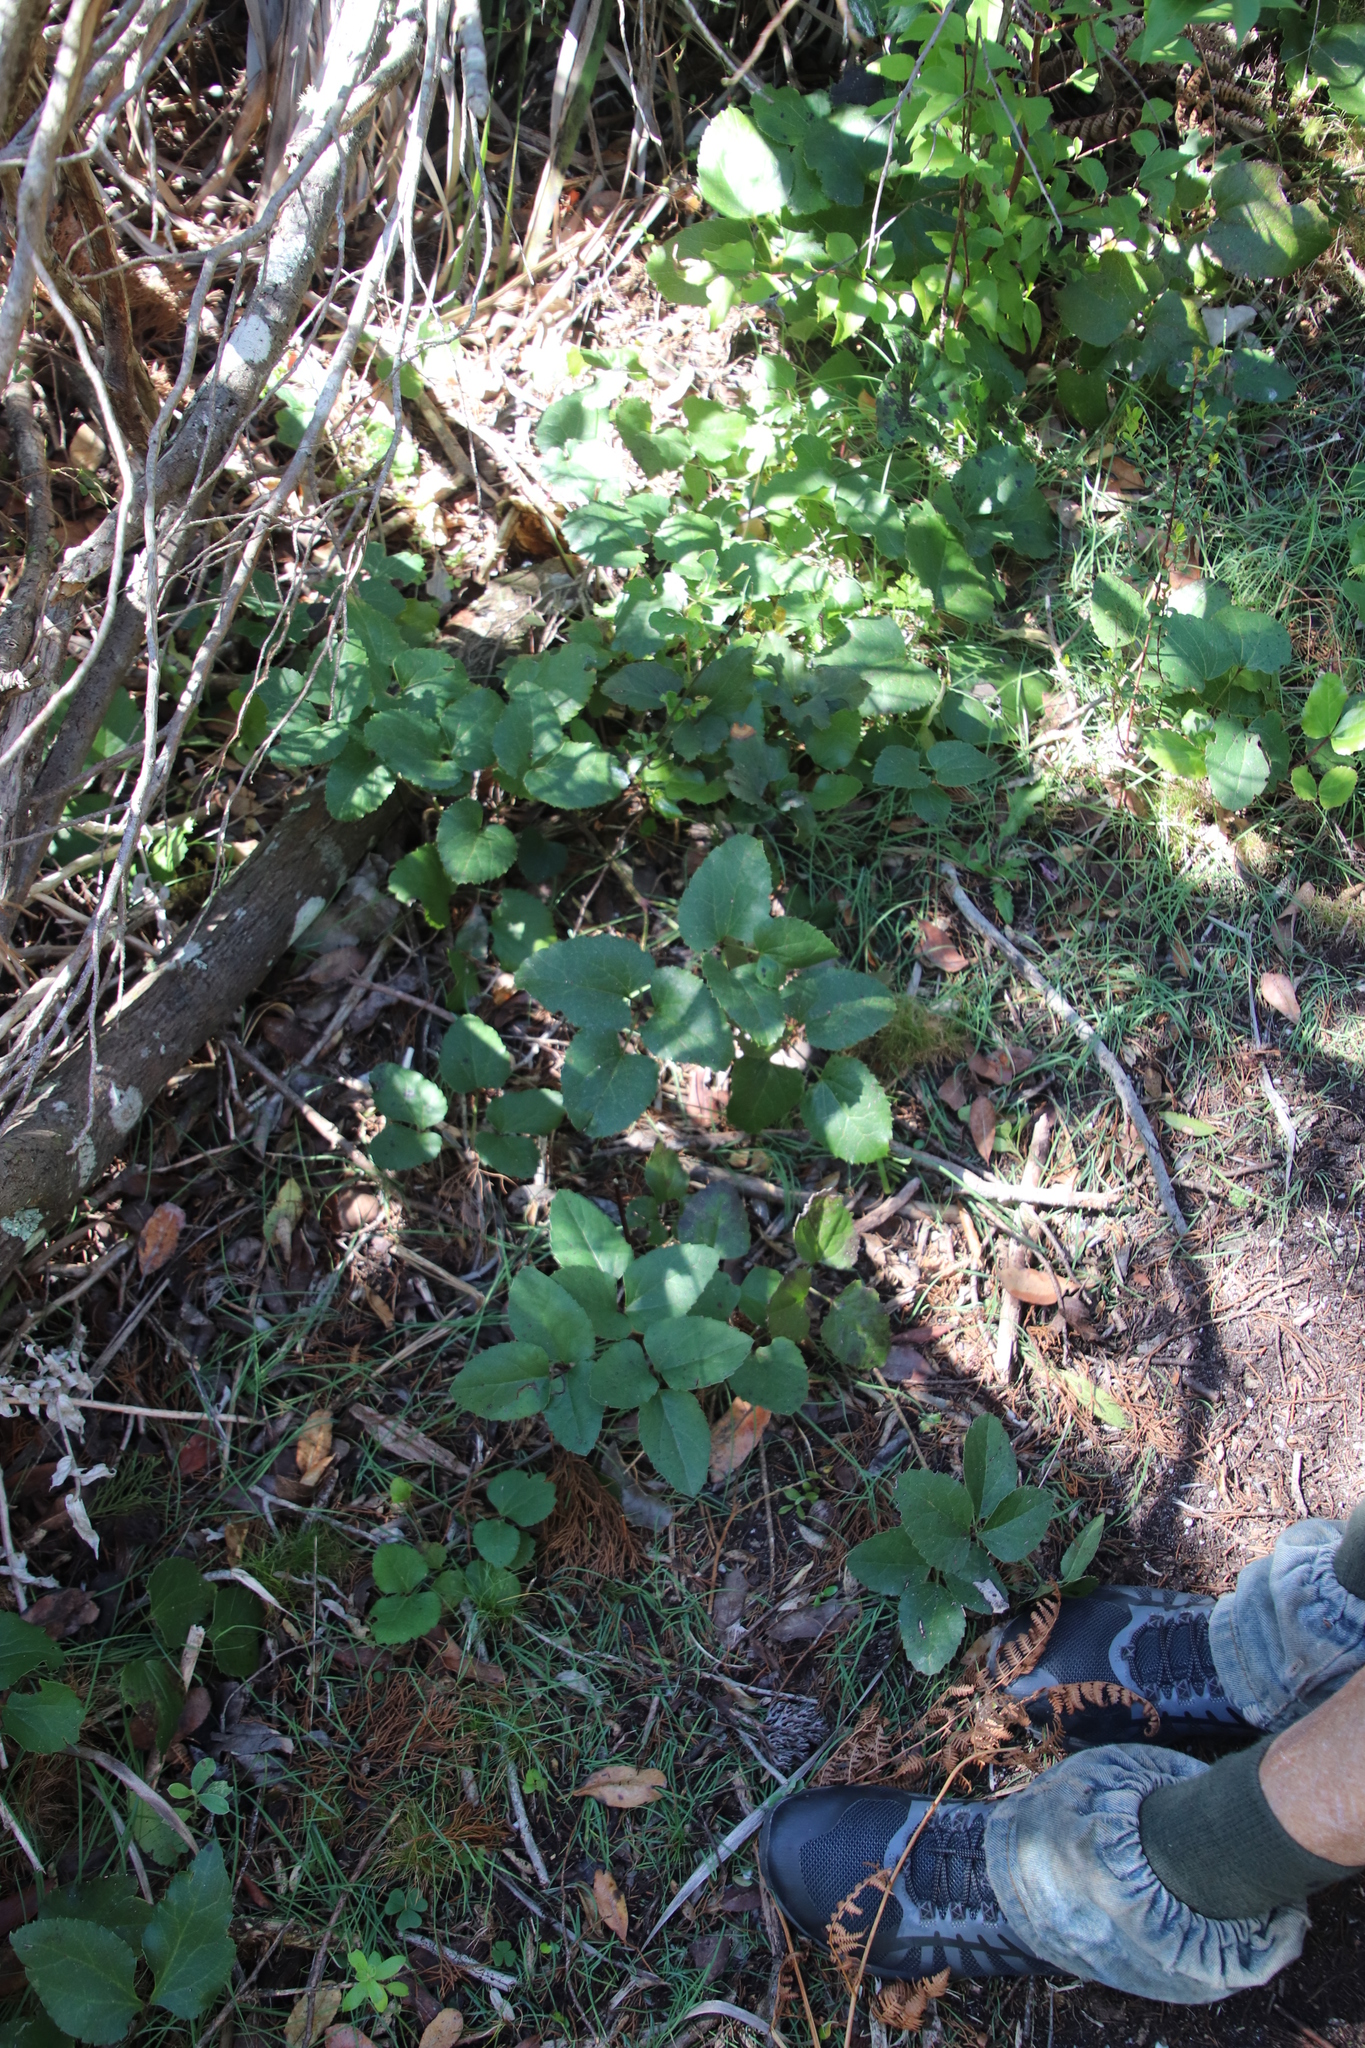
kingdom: Plantae
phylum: Tracheophyta
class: Magnoliopsida
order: Ranunculales
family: Ranunculaceae
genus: Knowltonia
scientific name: Knowltonia vesicatoria
